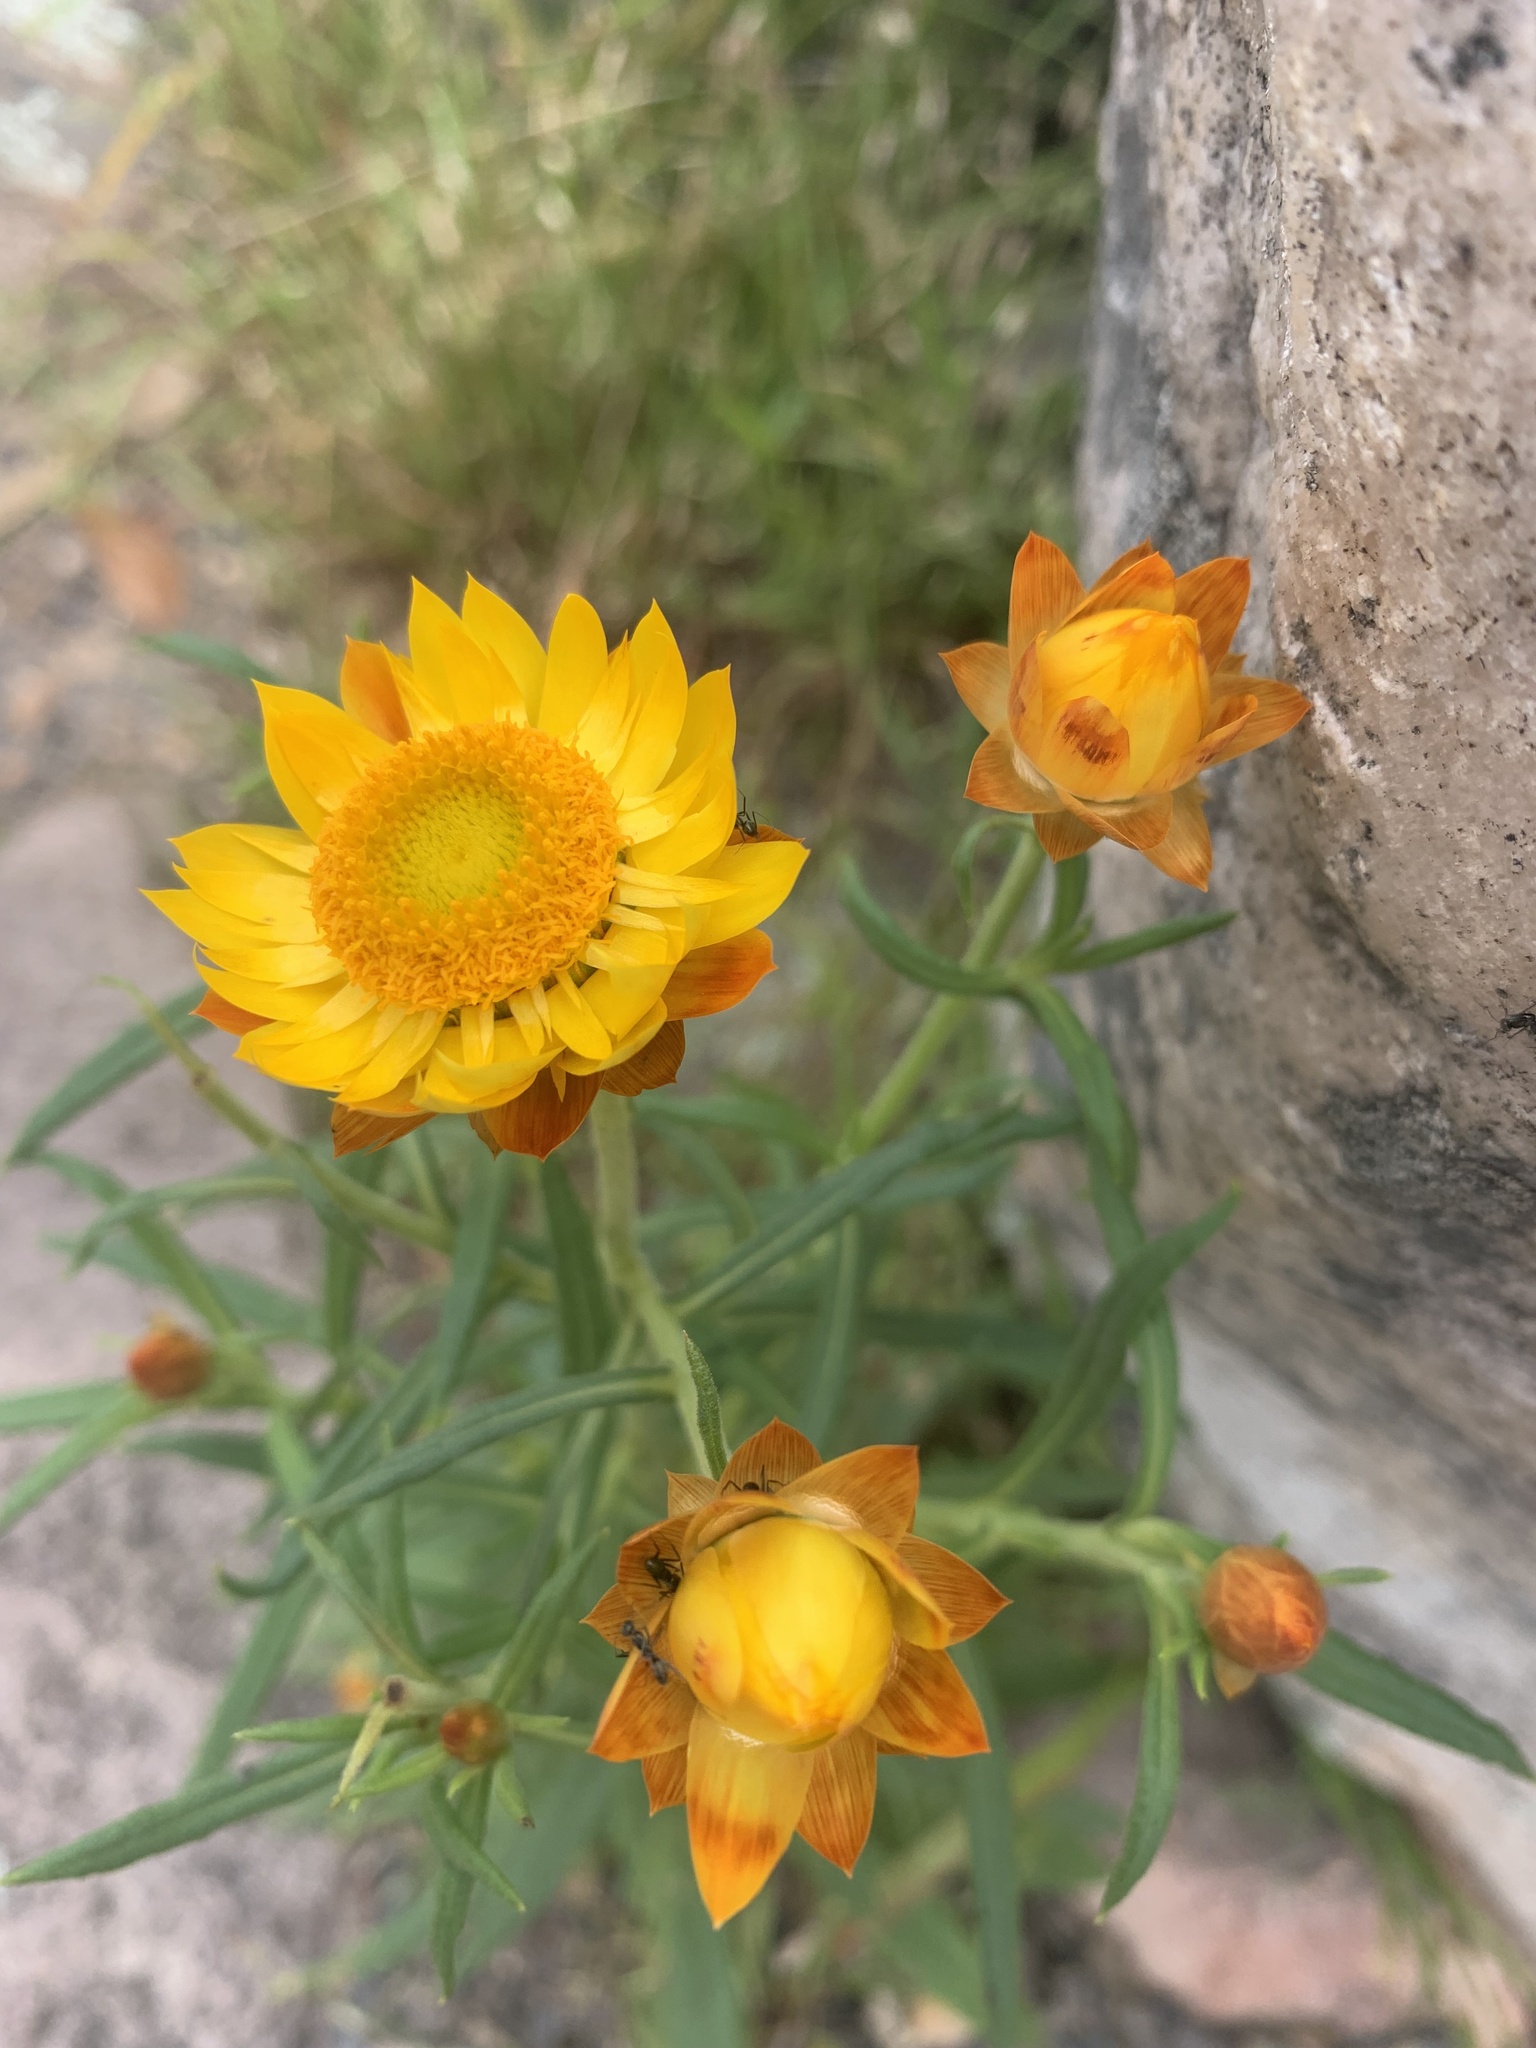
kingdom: Plantae
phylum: Tracheophyta
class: Magnoliopsida
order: Asterales
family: Asteraceae
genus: Xerochrysum
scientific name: Xerochrysum bracteatum
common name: Bracted strawflower
